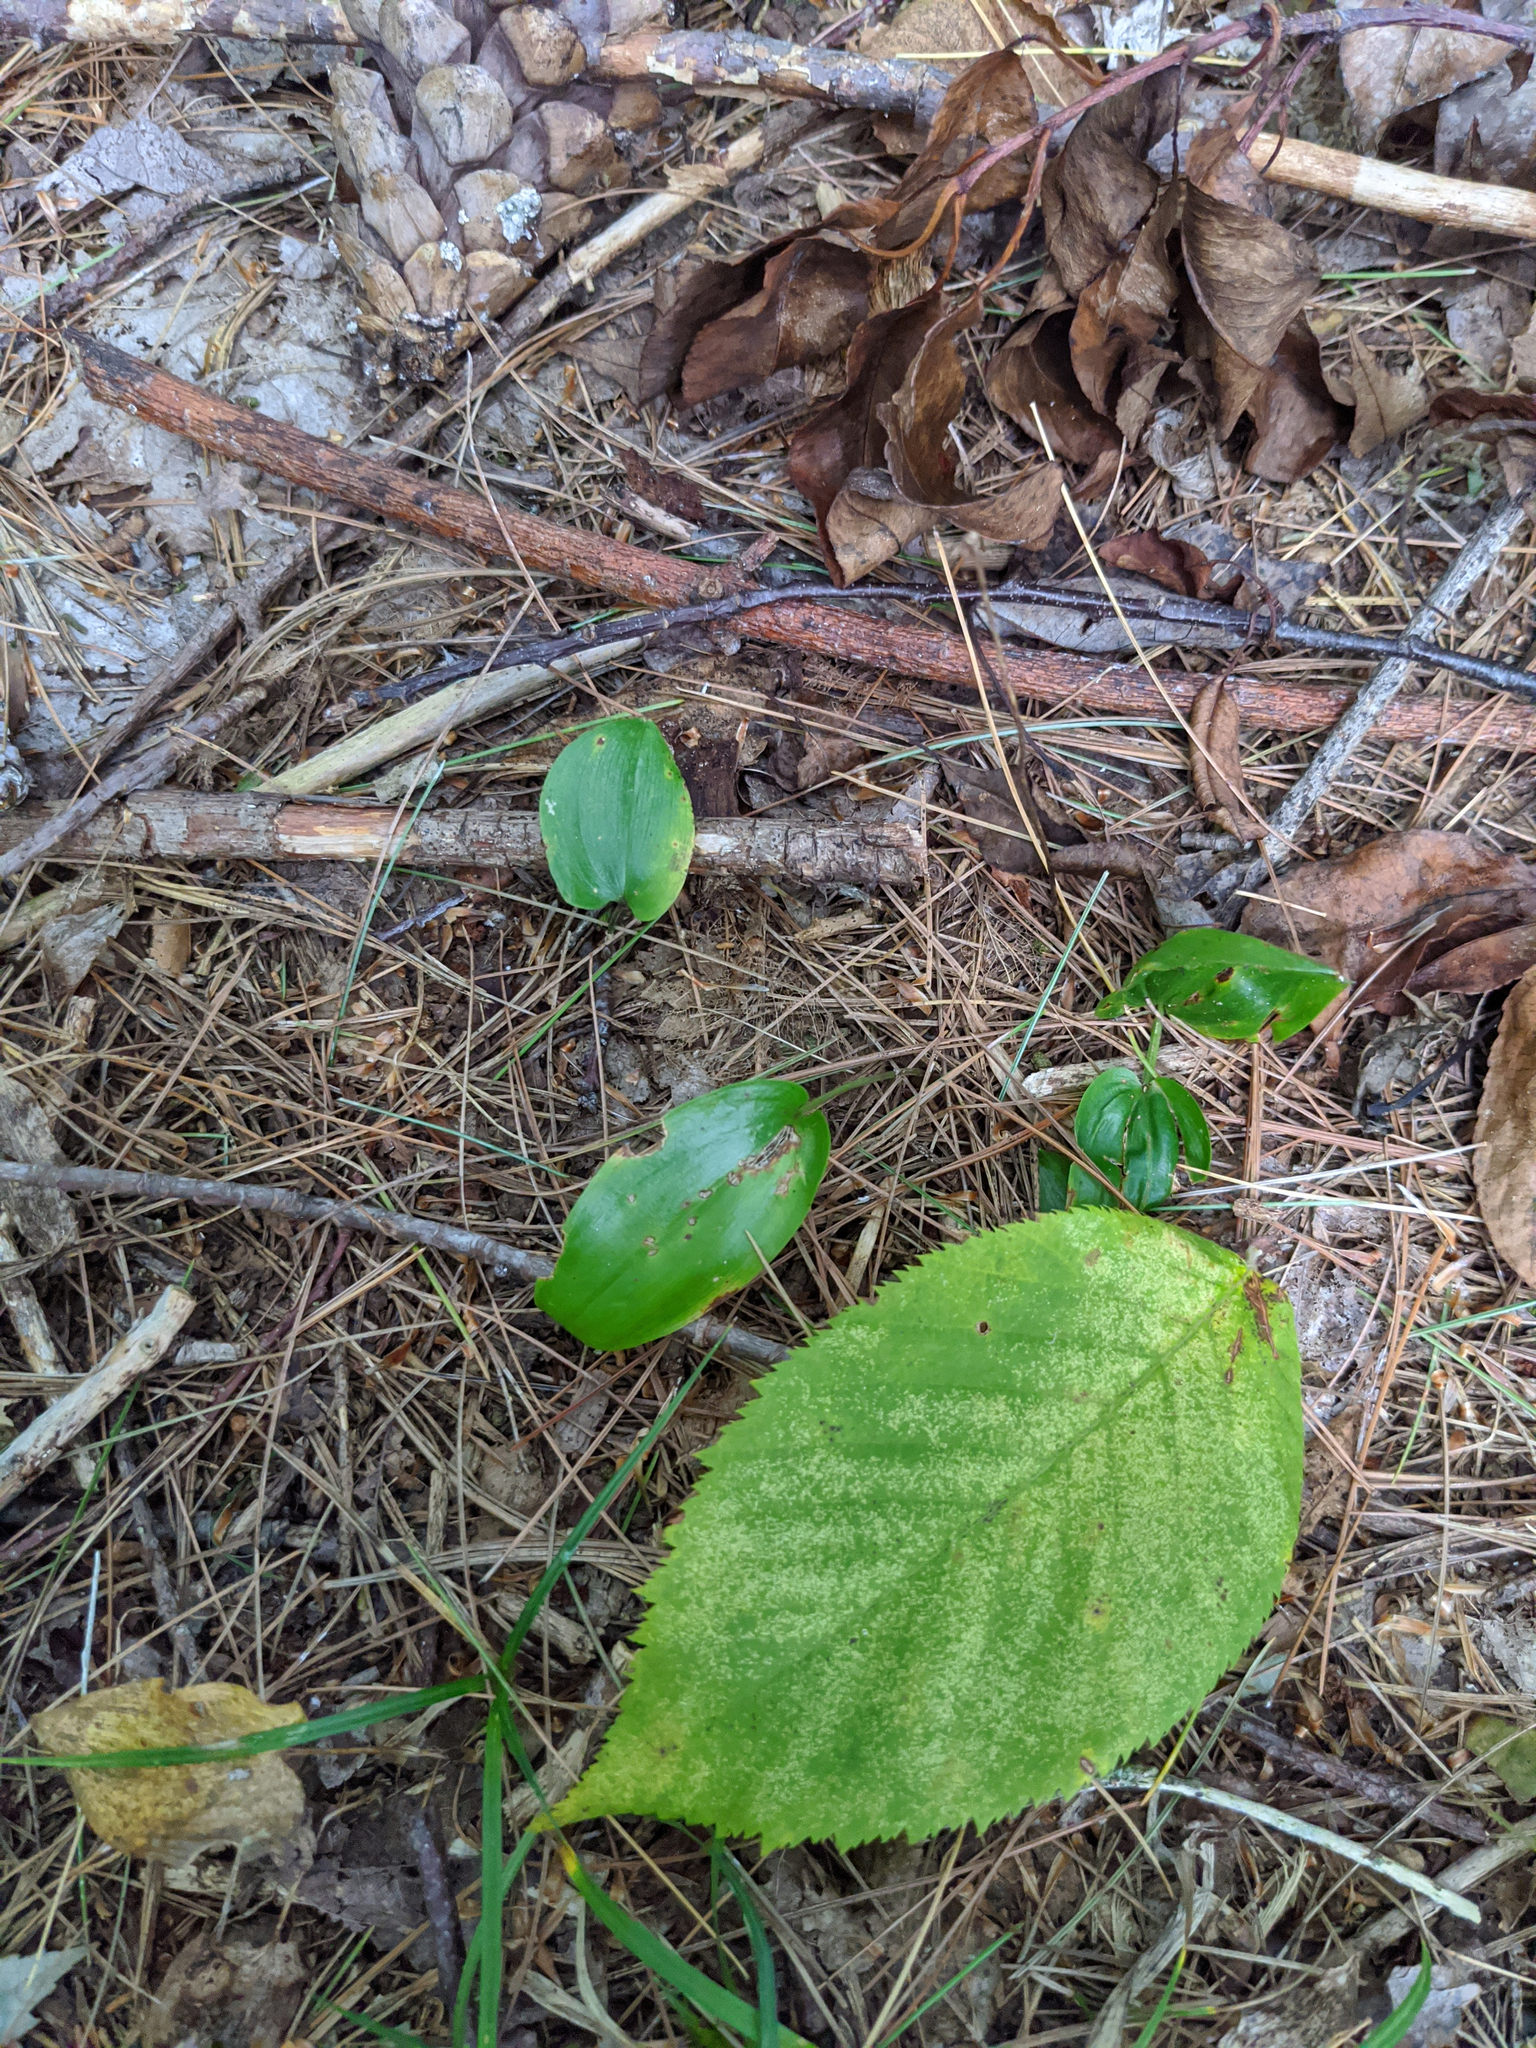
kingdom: Plantae
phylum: Tracheophyta
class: Liliopsida
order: Asparagales
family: Asparagaceae
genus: Maianthemum
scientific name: Maianthemum canadense
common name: False lily-of-the-valley
